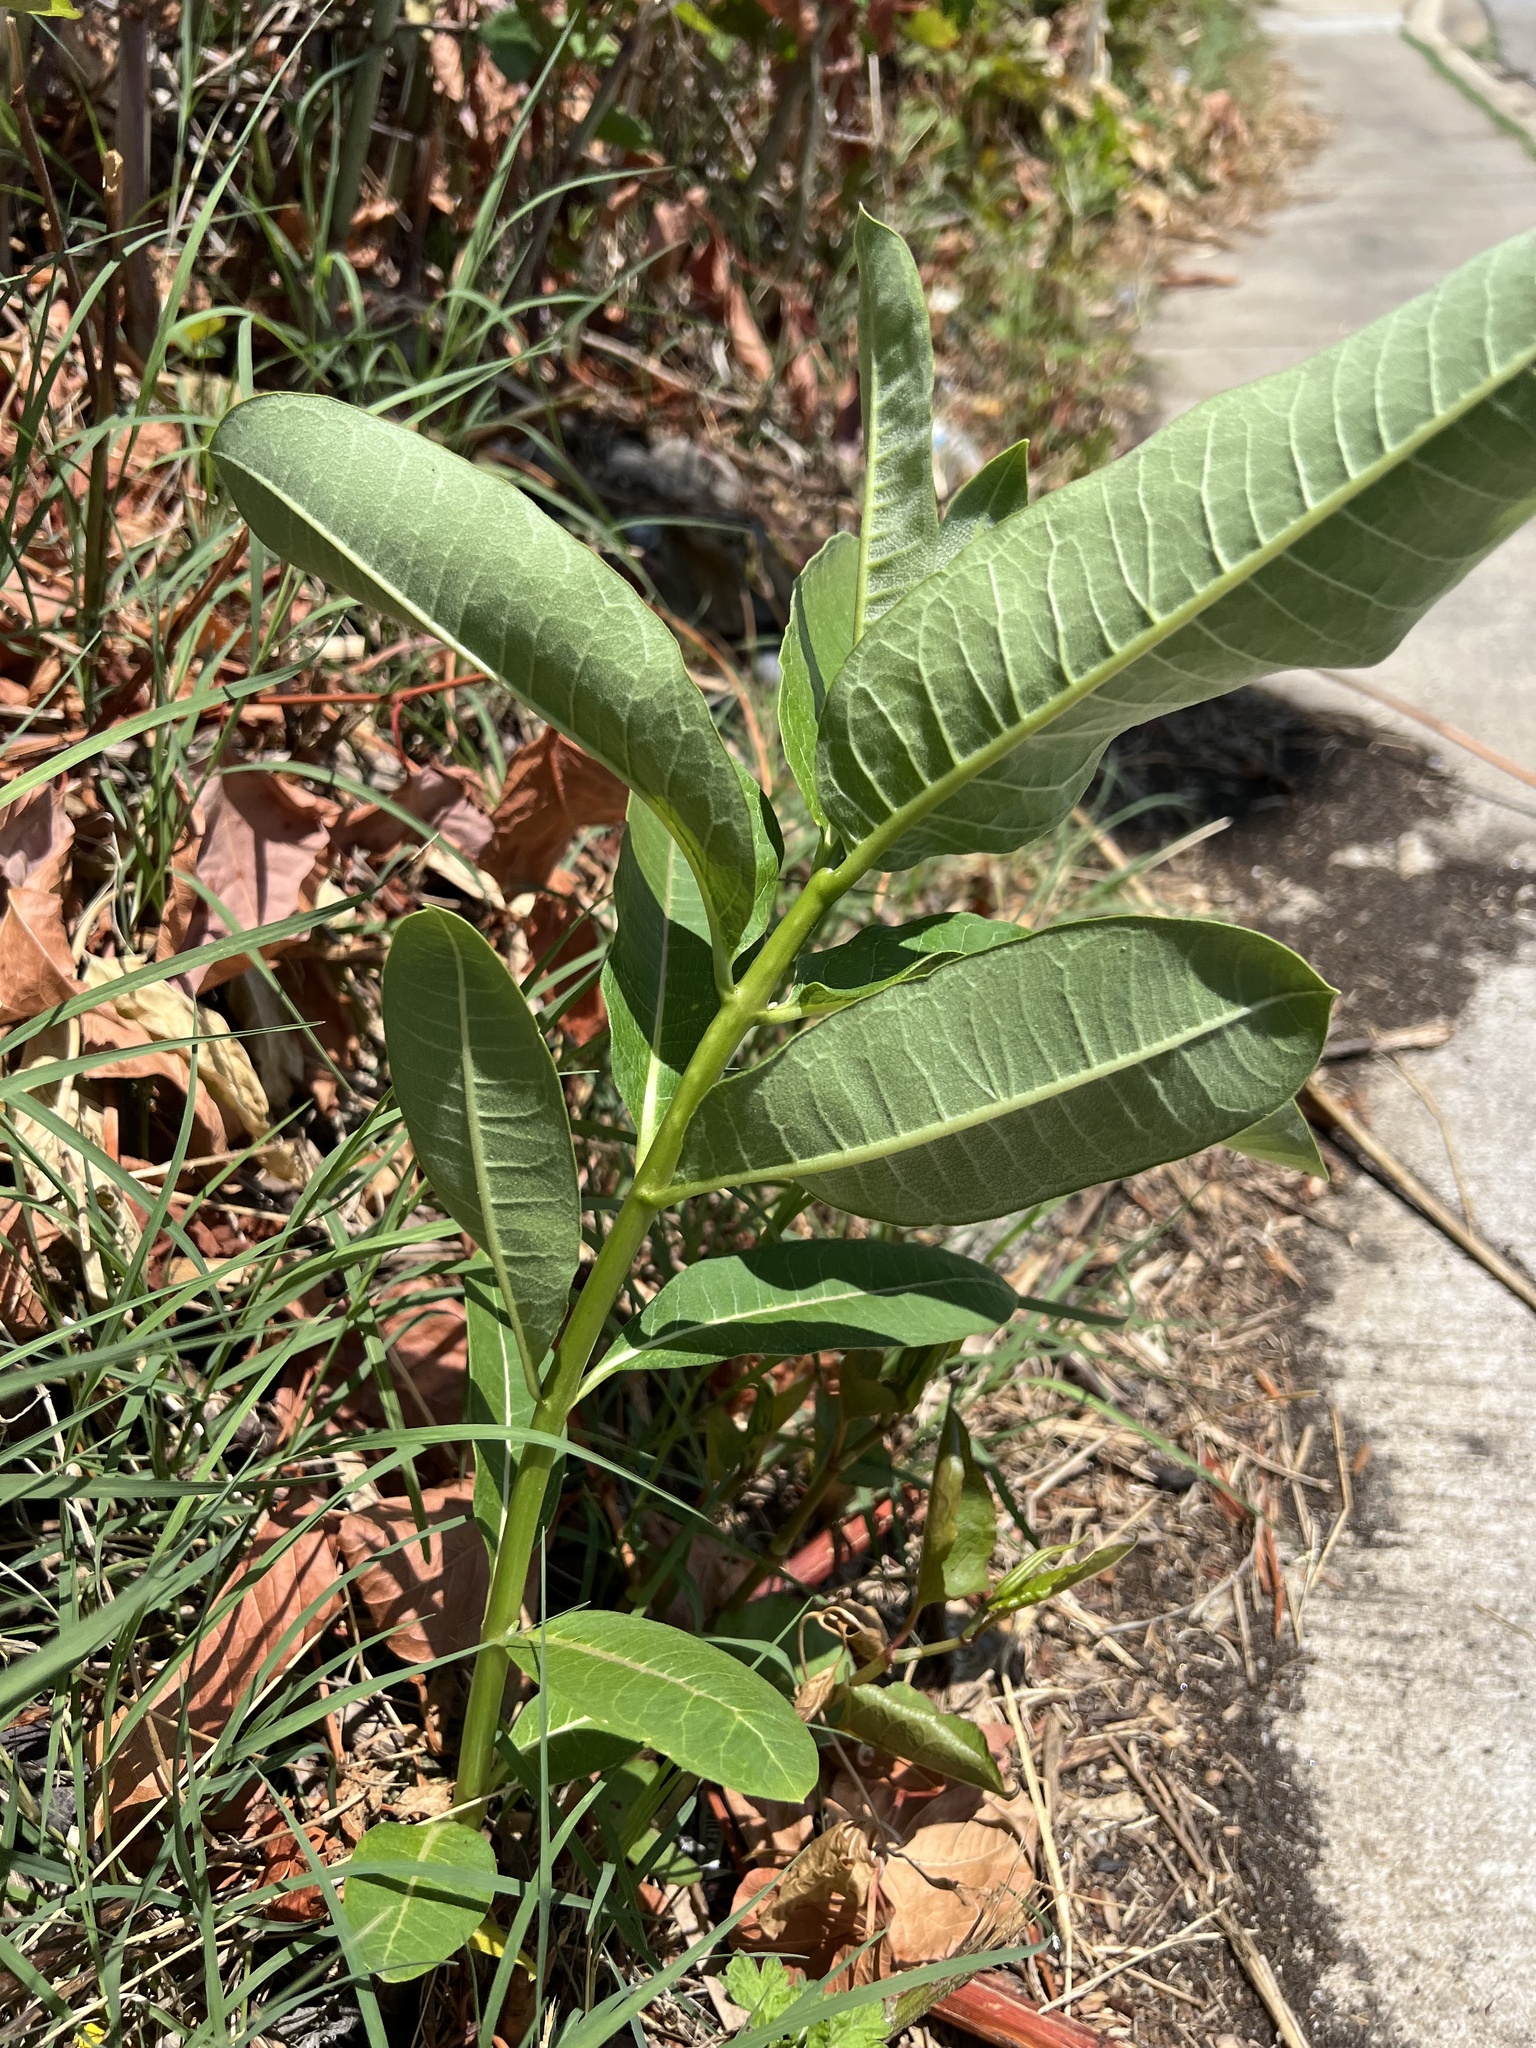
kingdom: Plantae
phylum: Tracheophyta
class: Magnoliopsida
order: Gentianales
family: Apocynaceae
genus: Asclepias
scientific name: Asclepias syriaca
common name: Common milkweed
